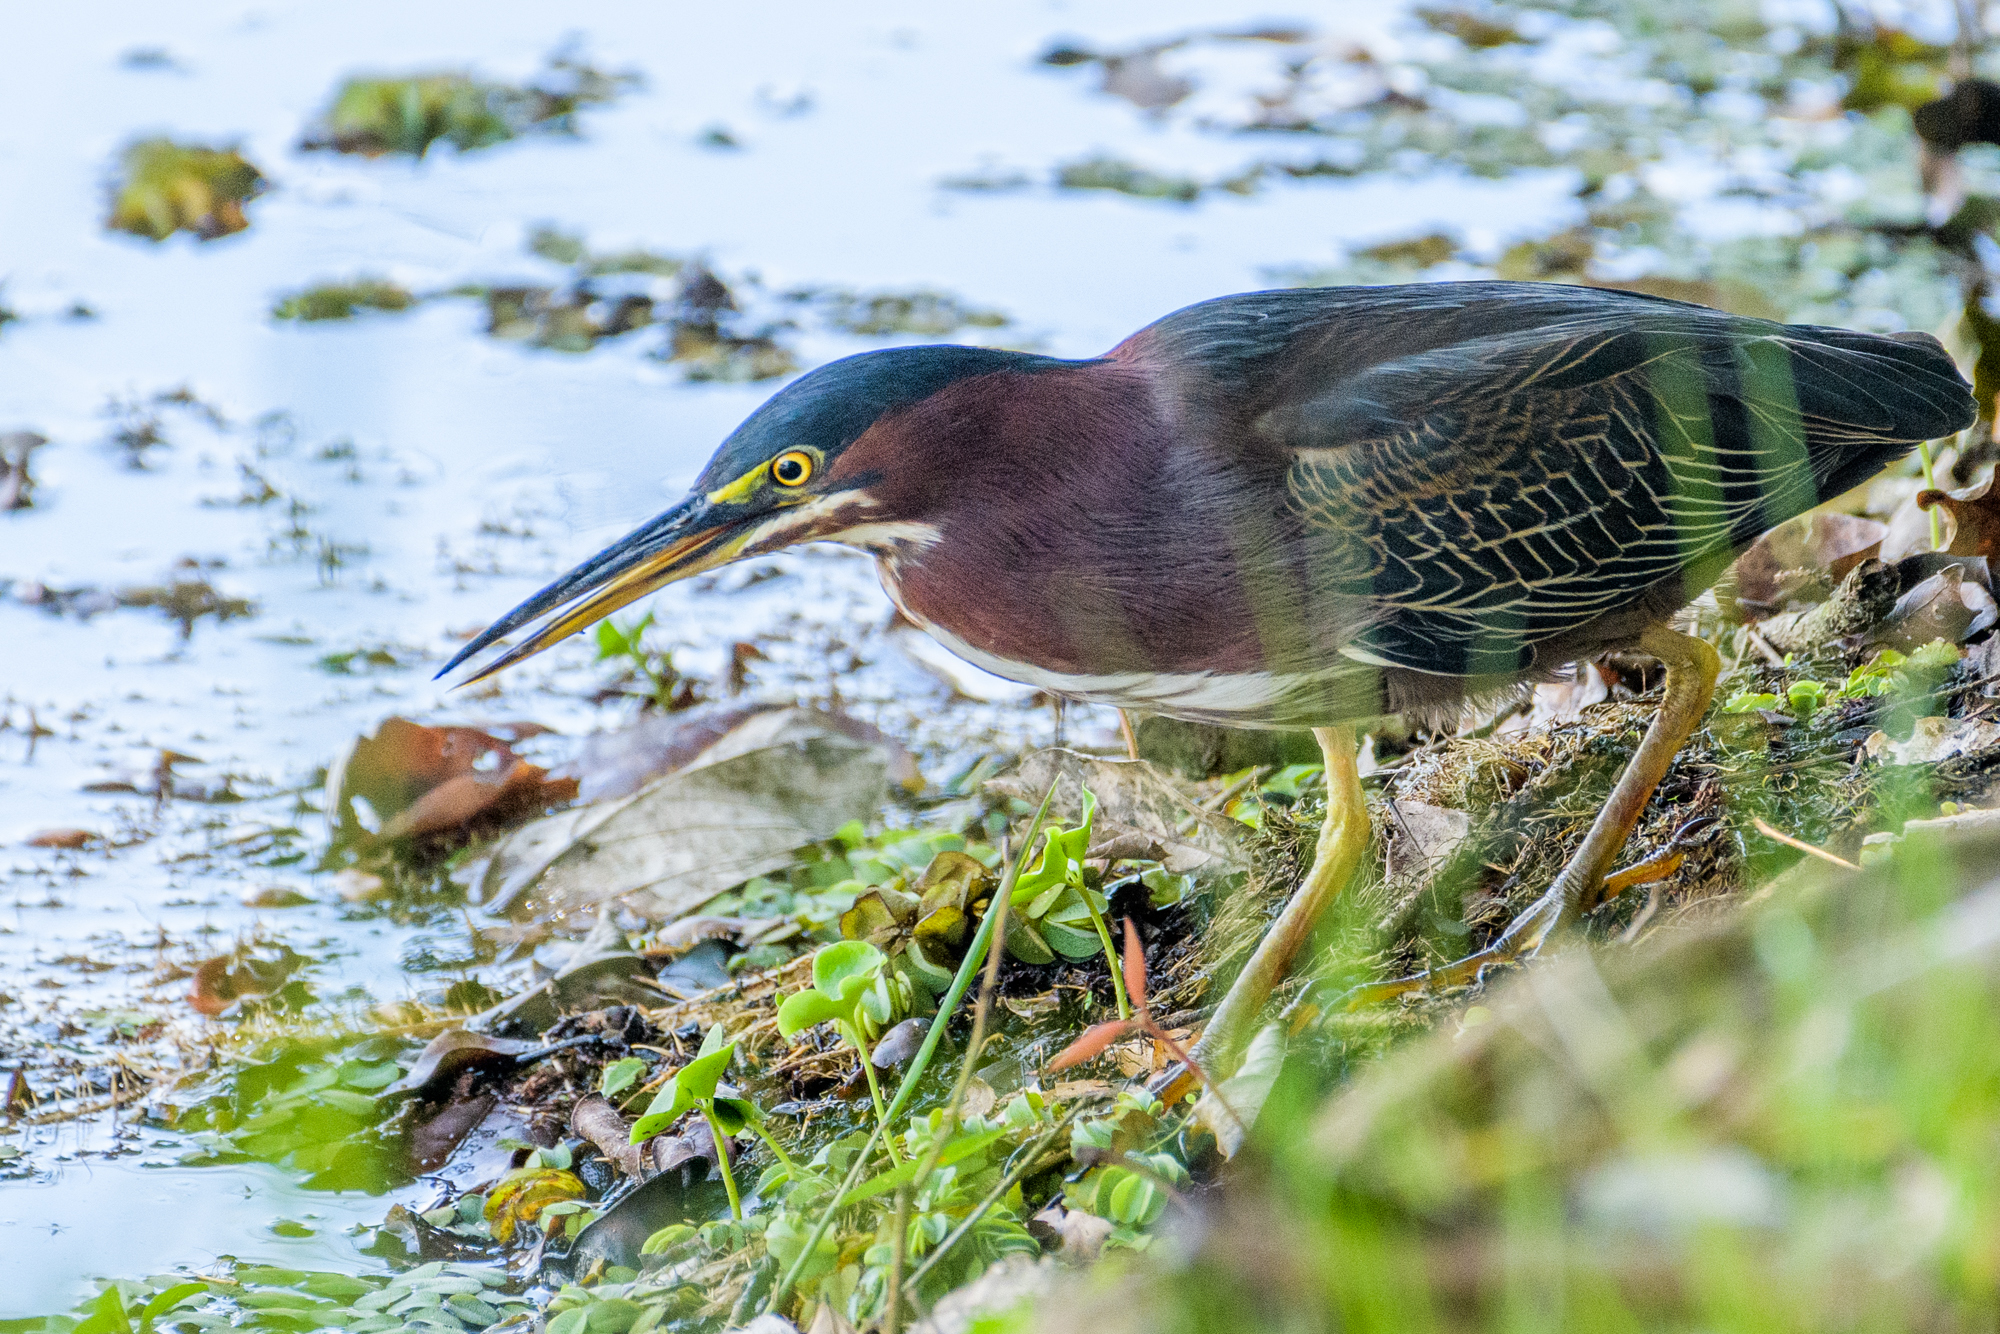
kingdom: Animalia
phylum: Chordata
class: Aves
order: Pelecaniformes
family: Ardeidae
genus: Butorides
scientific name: Butorides virescens
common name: Green heron
